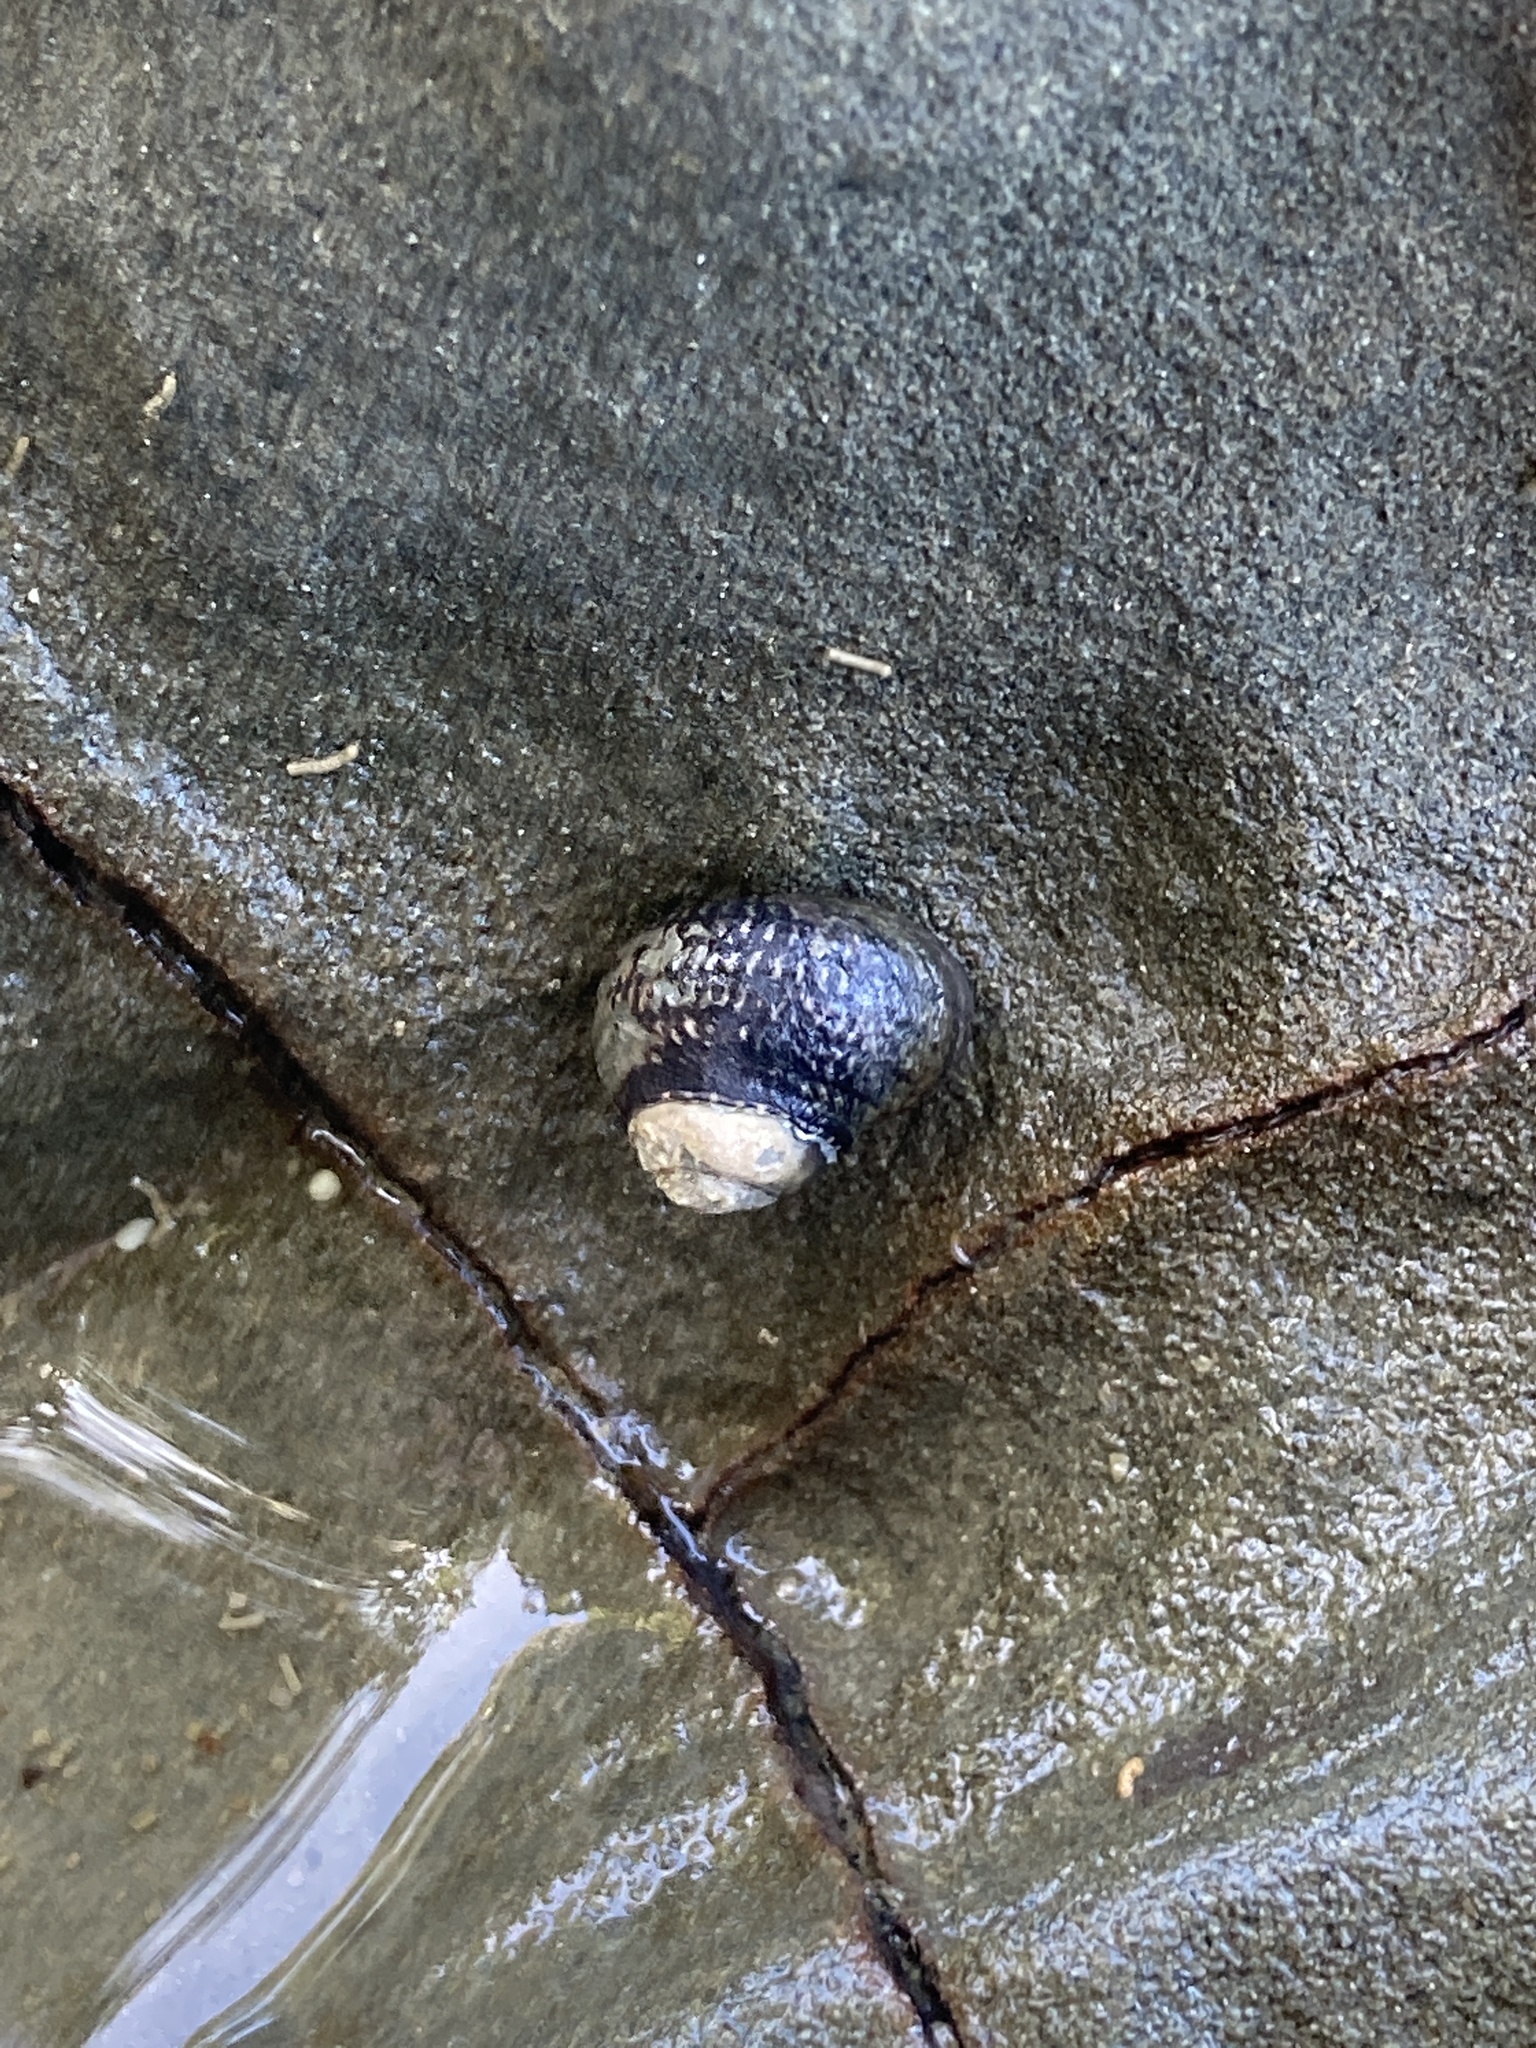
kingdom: Animalia
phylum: Mollusca
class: Gastropoda
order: Trochida
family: Trochidae
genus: Diloma
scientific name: Diloma aethiops
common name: Scorched monodont
